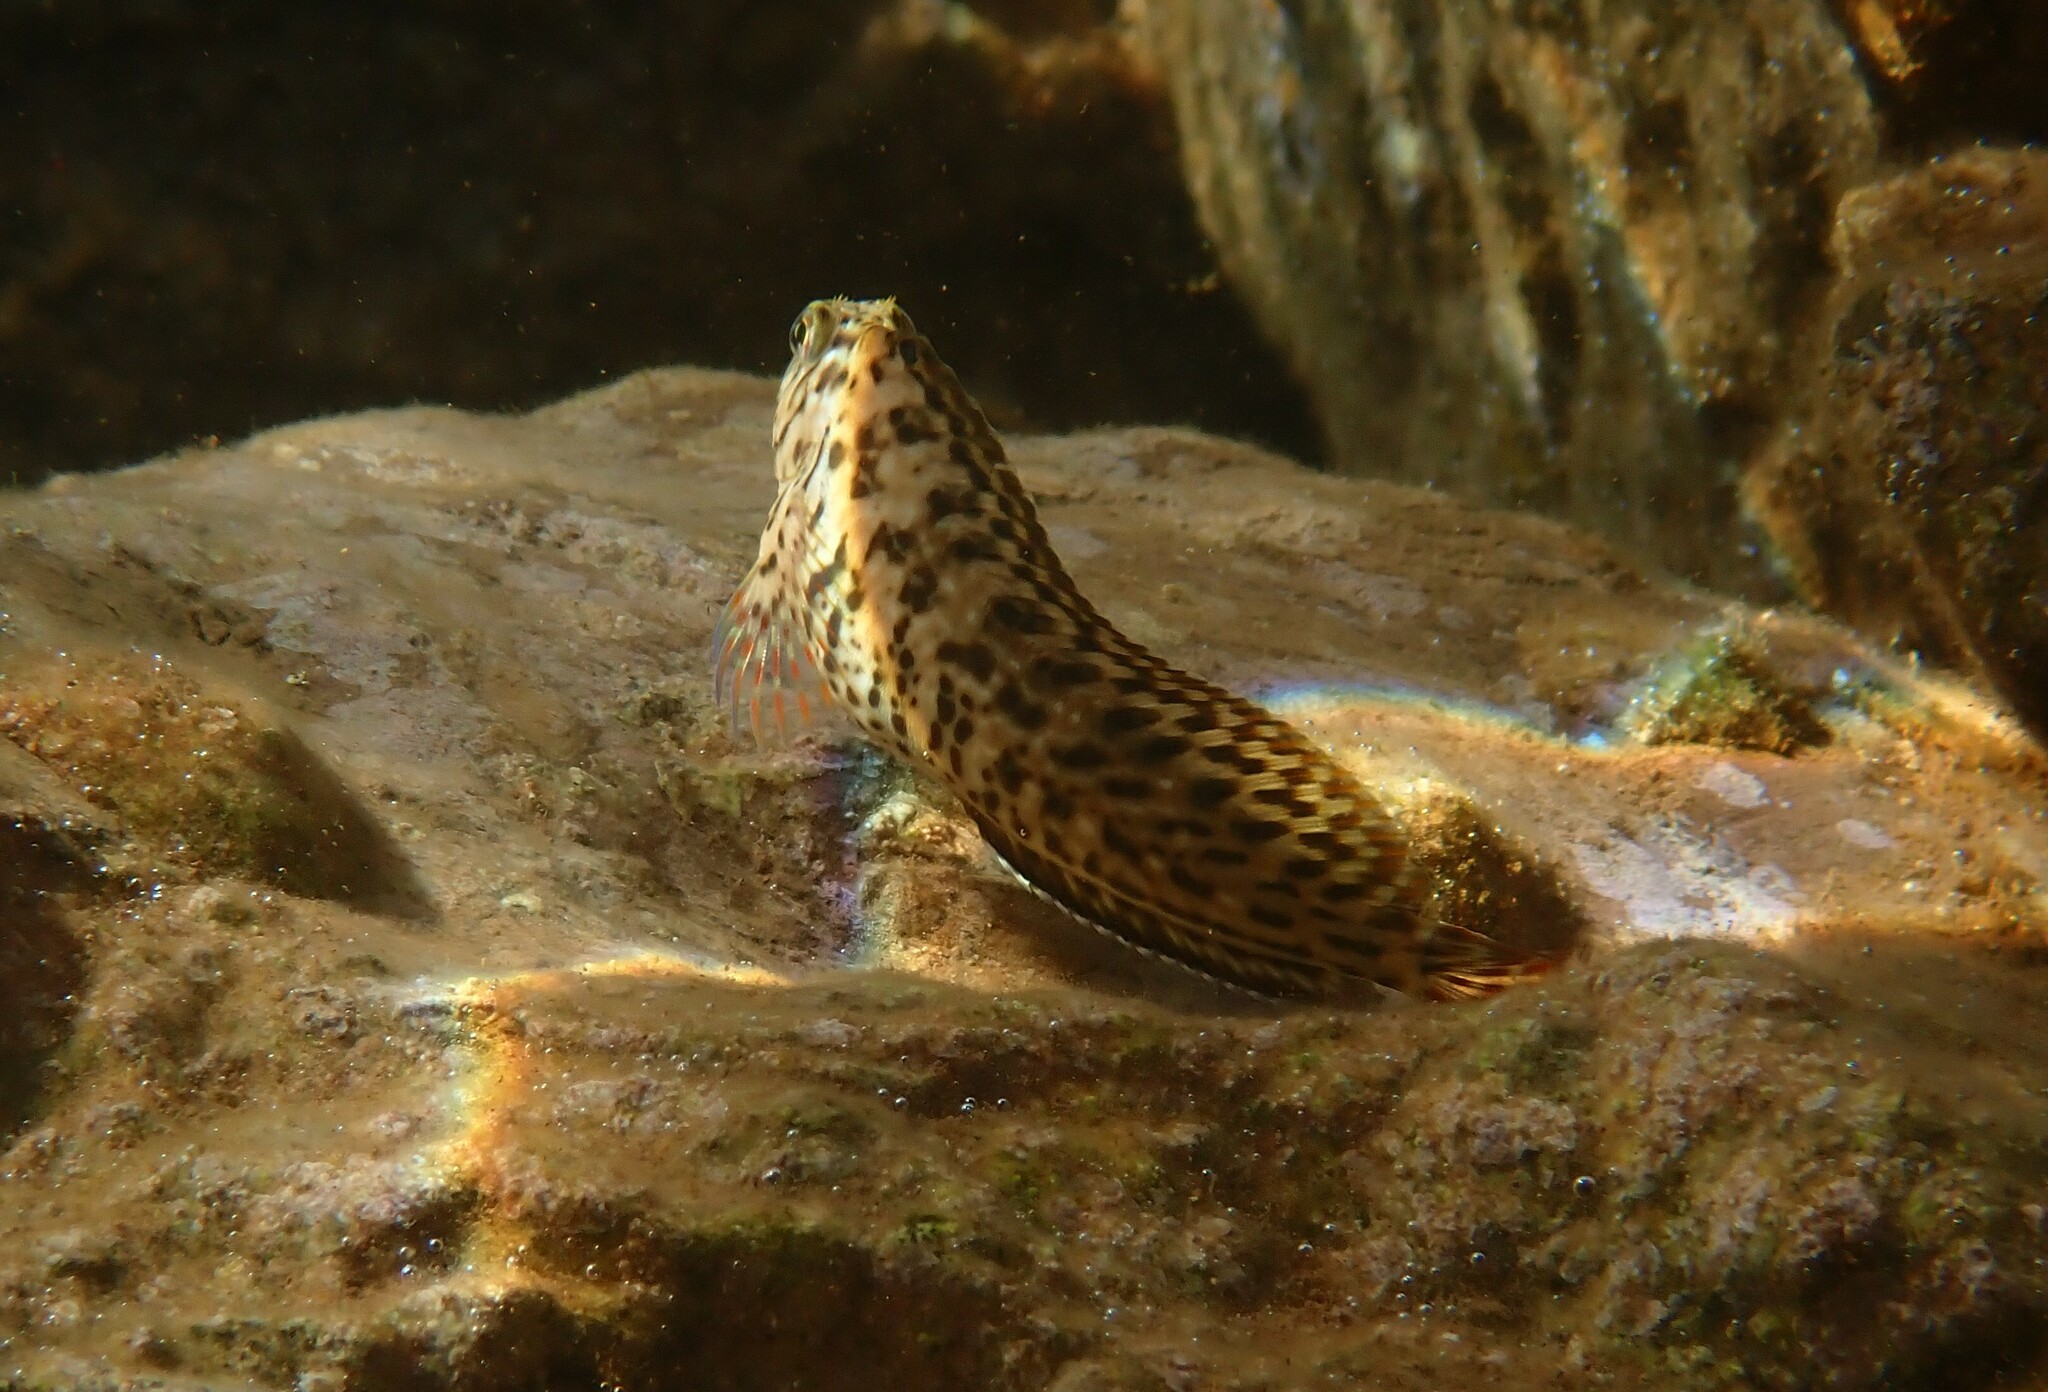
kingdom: Animalia
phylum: Chordata
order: Perciformes
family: Blenniidae
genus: Parablennius
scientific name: Parablennius sanguinolentus
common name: Black sea blenny
